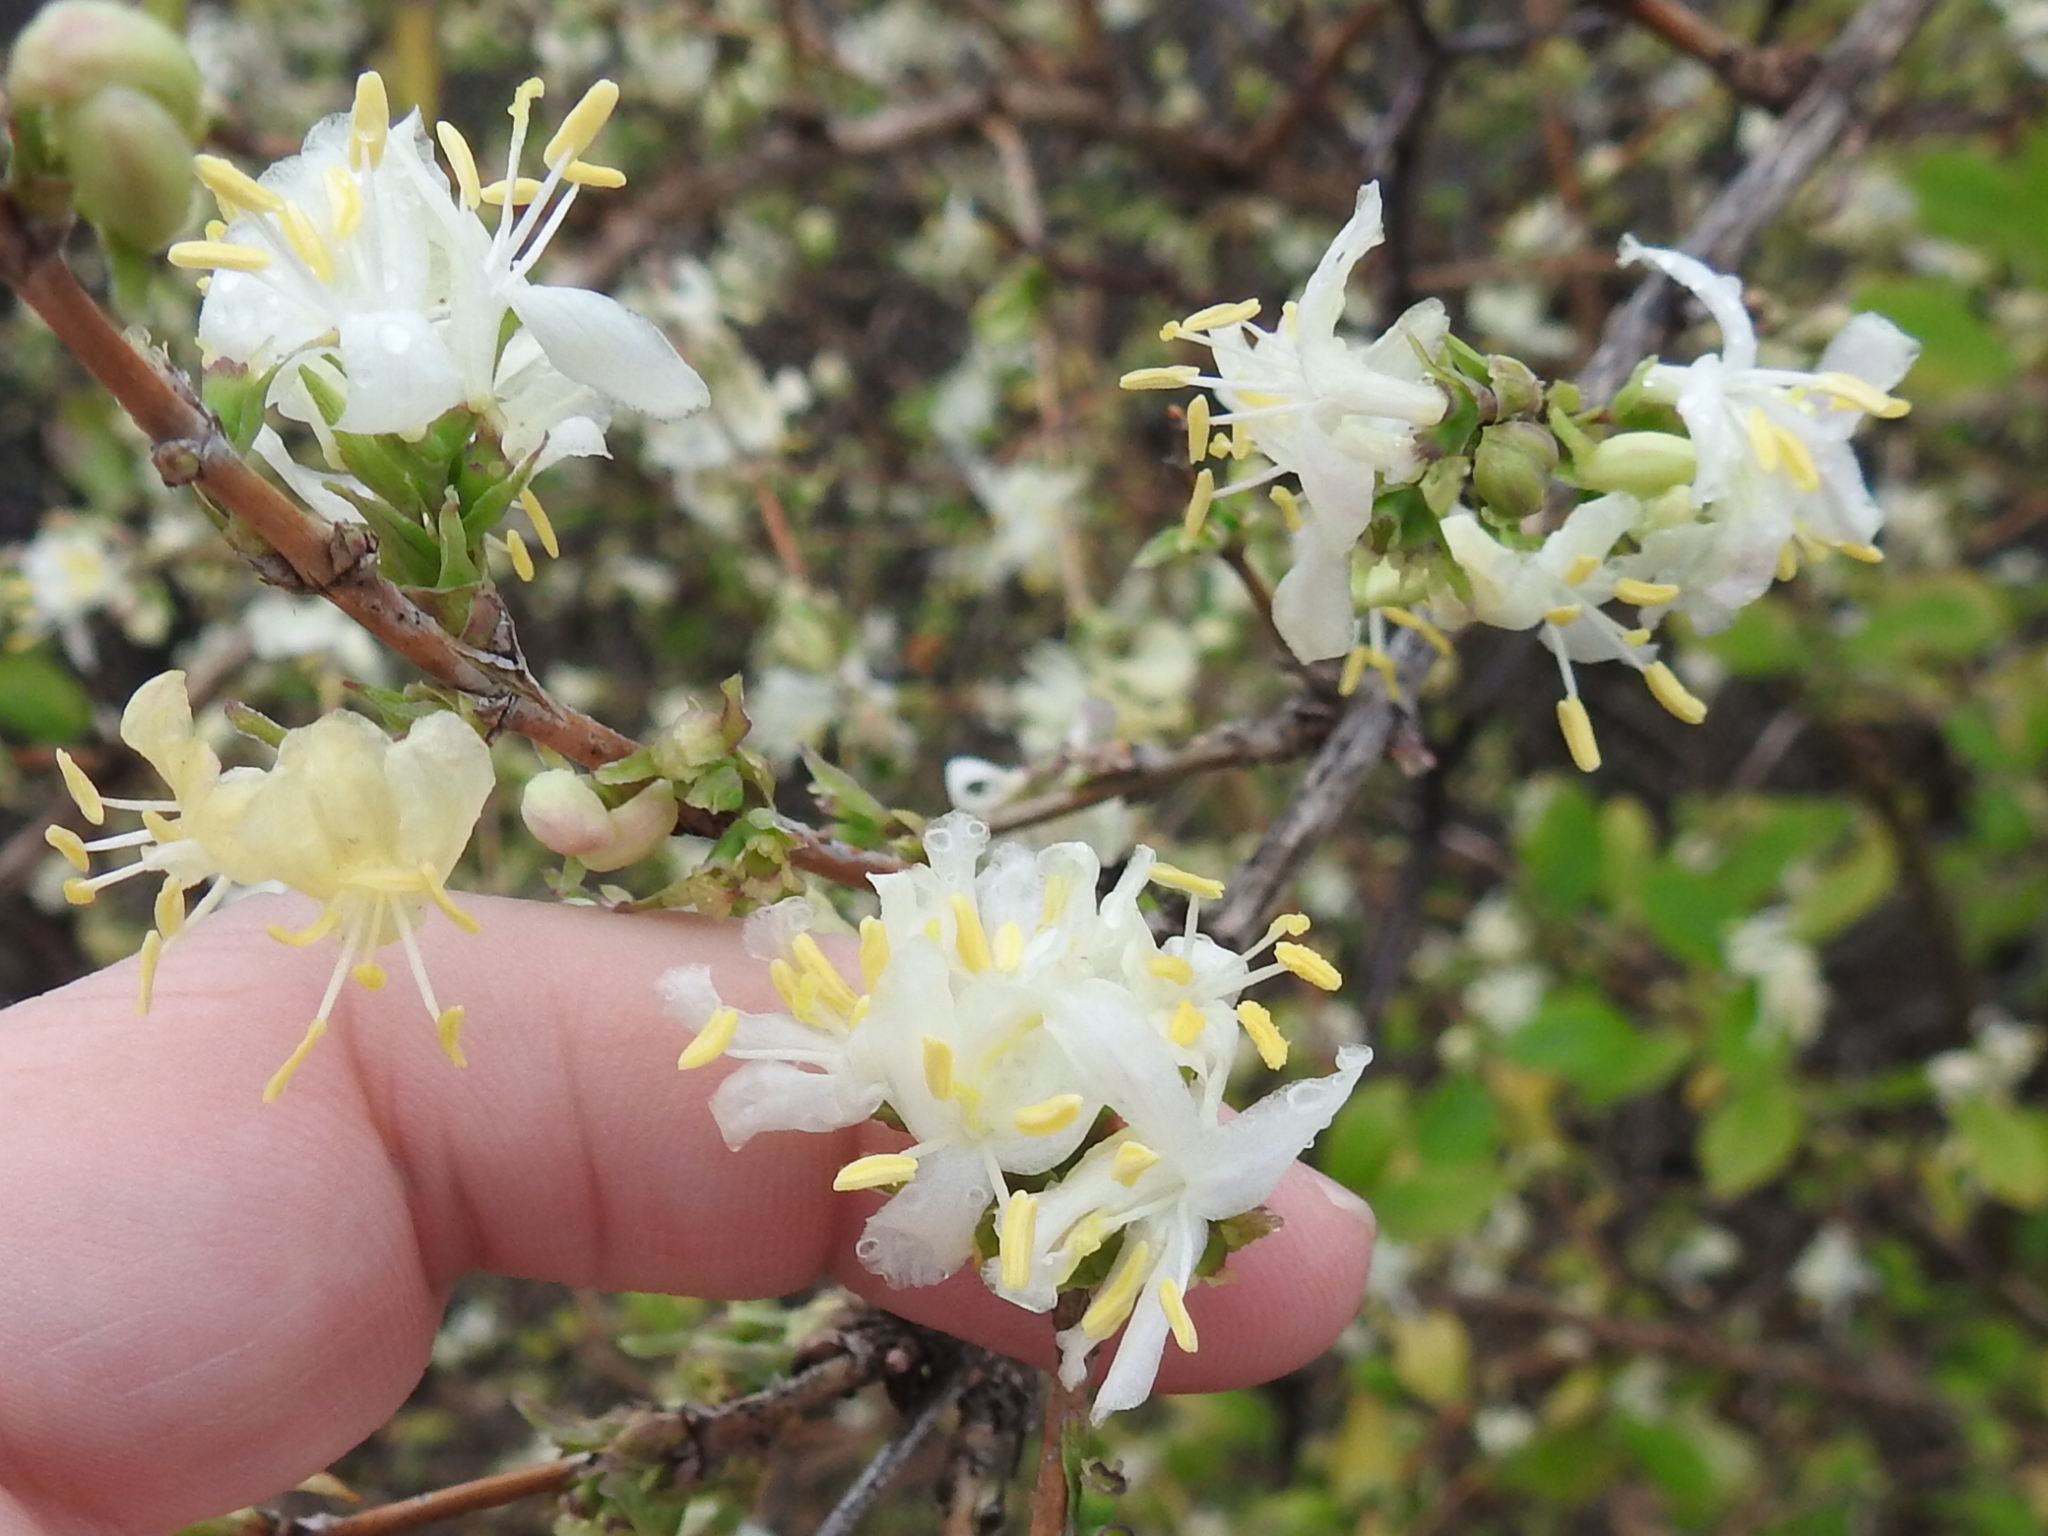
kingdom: Plantae
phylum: Tracheophyta
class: Magnoliopsida
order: Dipsacales
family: Caprifoliaceae
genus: Lonicera
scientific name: Lonicera fragrantissima
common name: Fragrant honeysuckle
